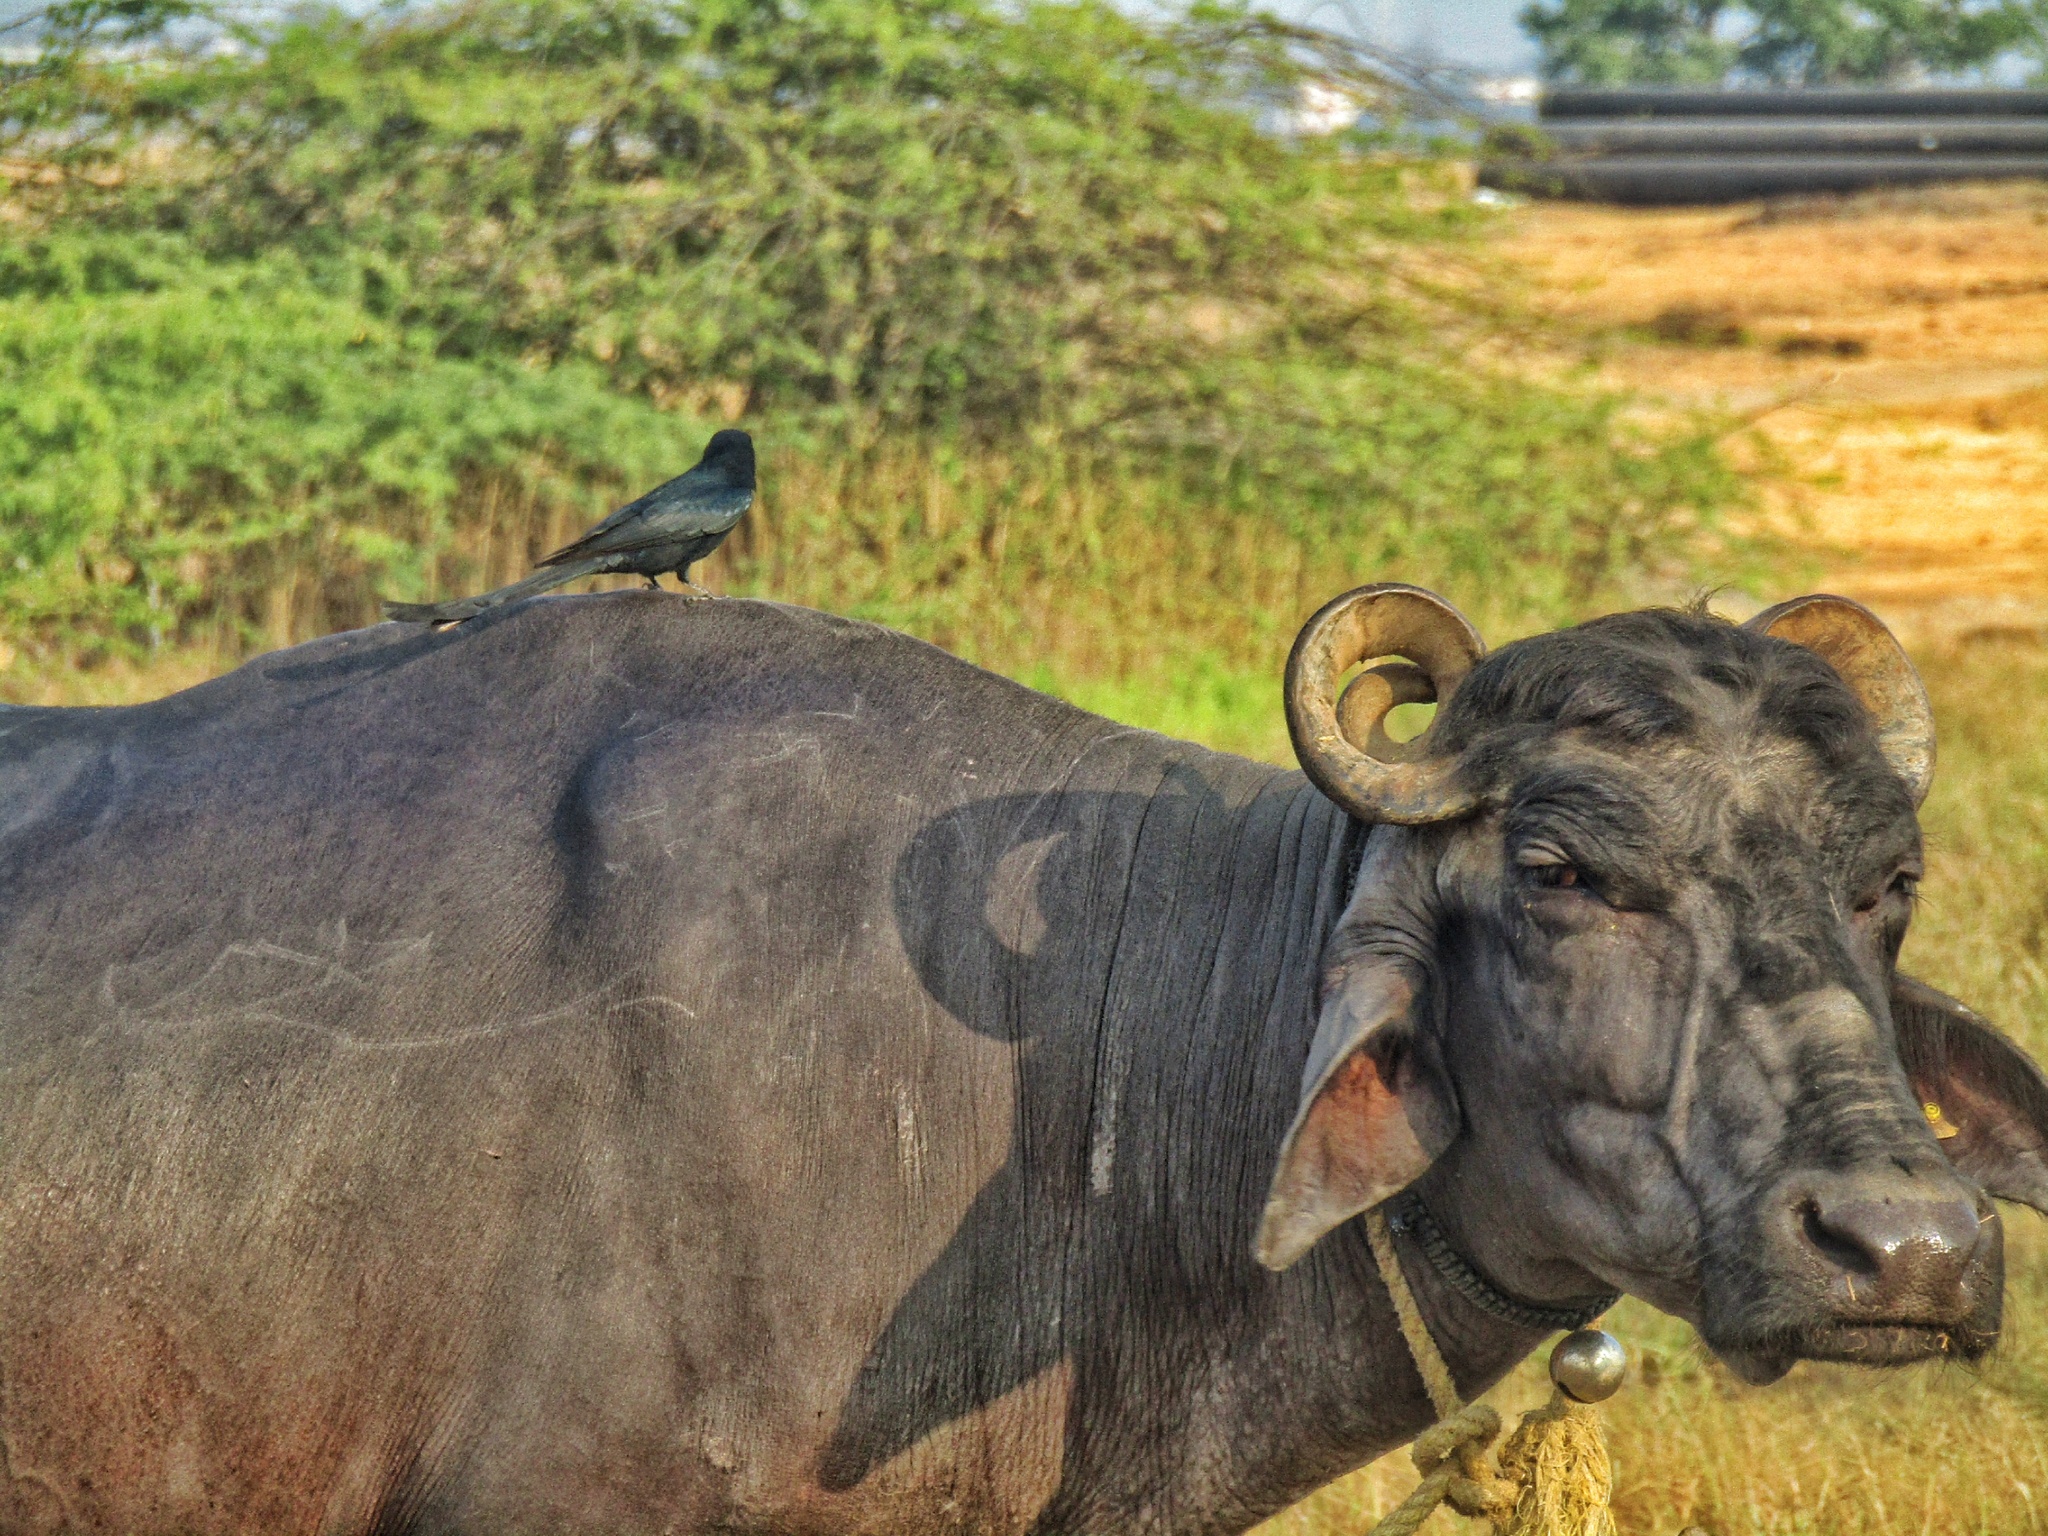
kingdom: Animalia
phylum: Chordata
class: Aves
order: Passeriformes
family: Dicruridae
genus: Dicrurus
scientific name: Dicrurus macrocercus
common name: Black drongo
